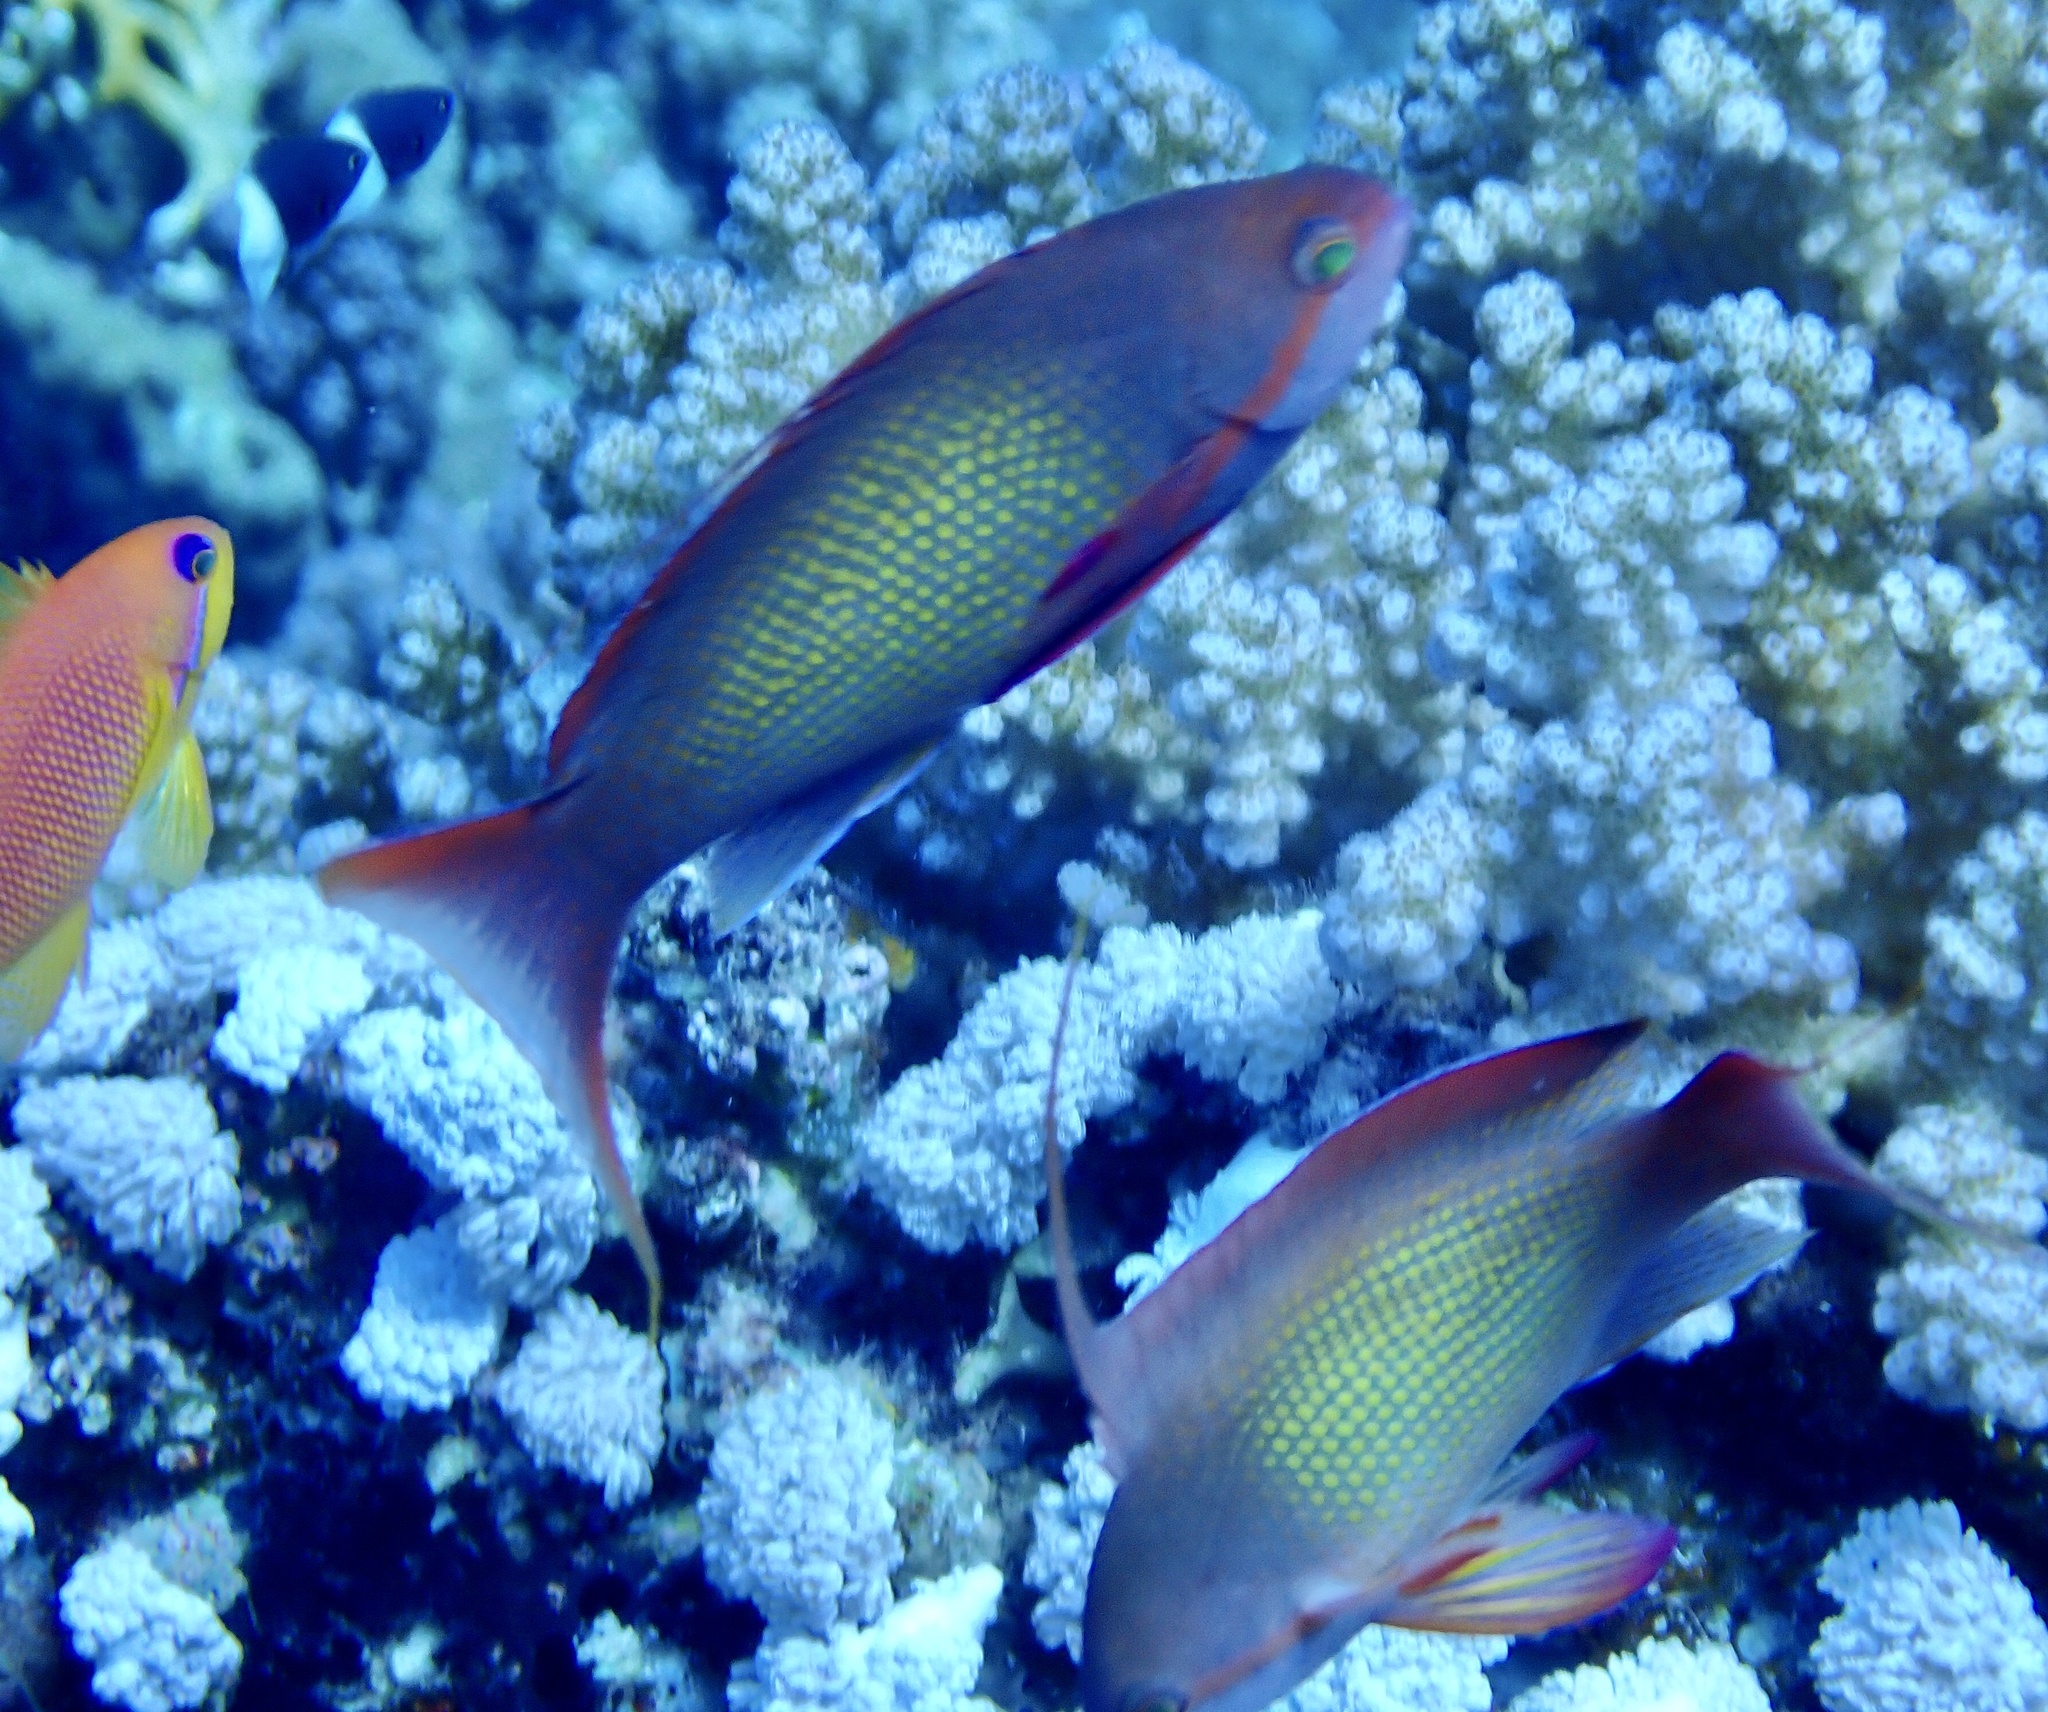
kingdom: Animalia
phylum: Chordata
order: Perciformes
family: Serranidae
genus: Pseudanthias
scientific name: Pseudanthias squamipinnis
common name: Scalefin anthias
